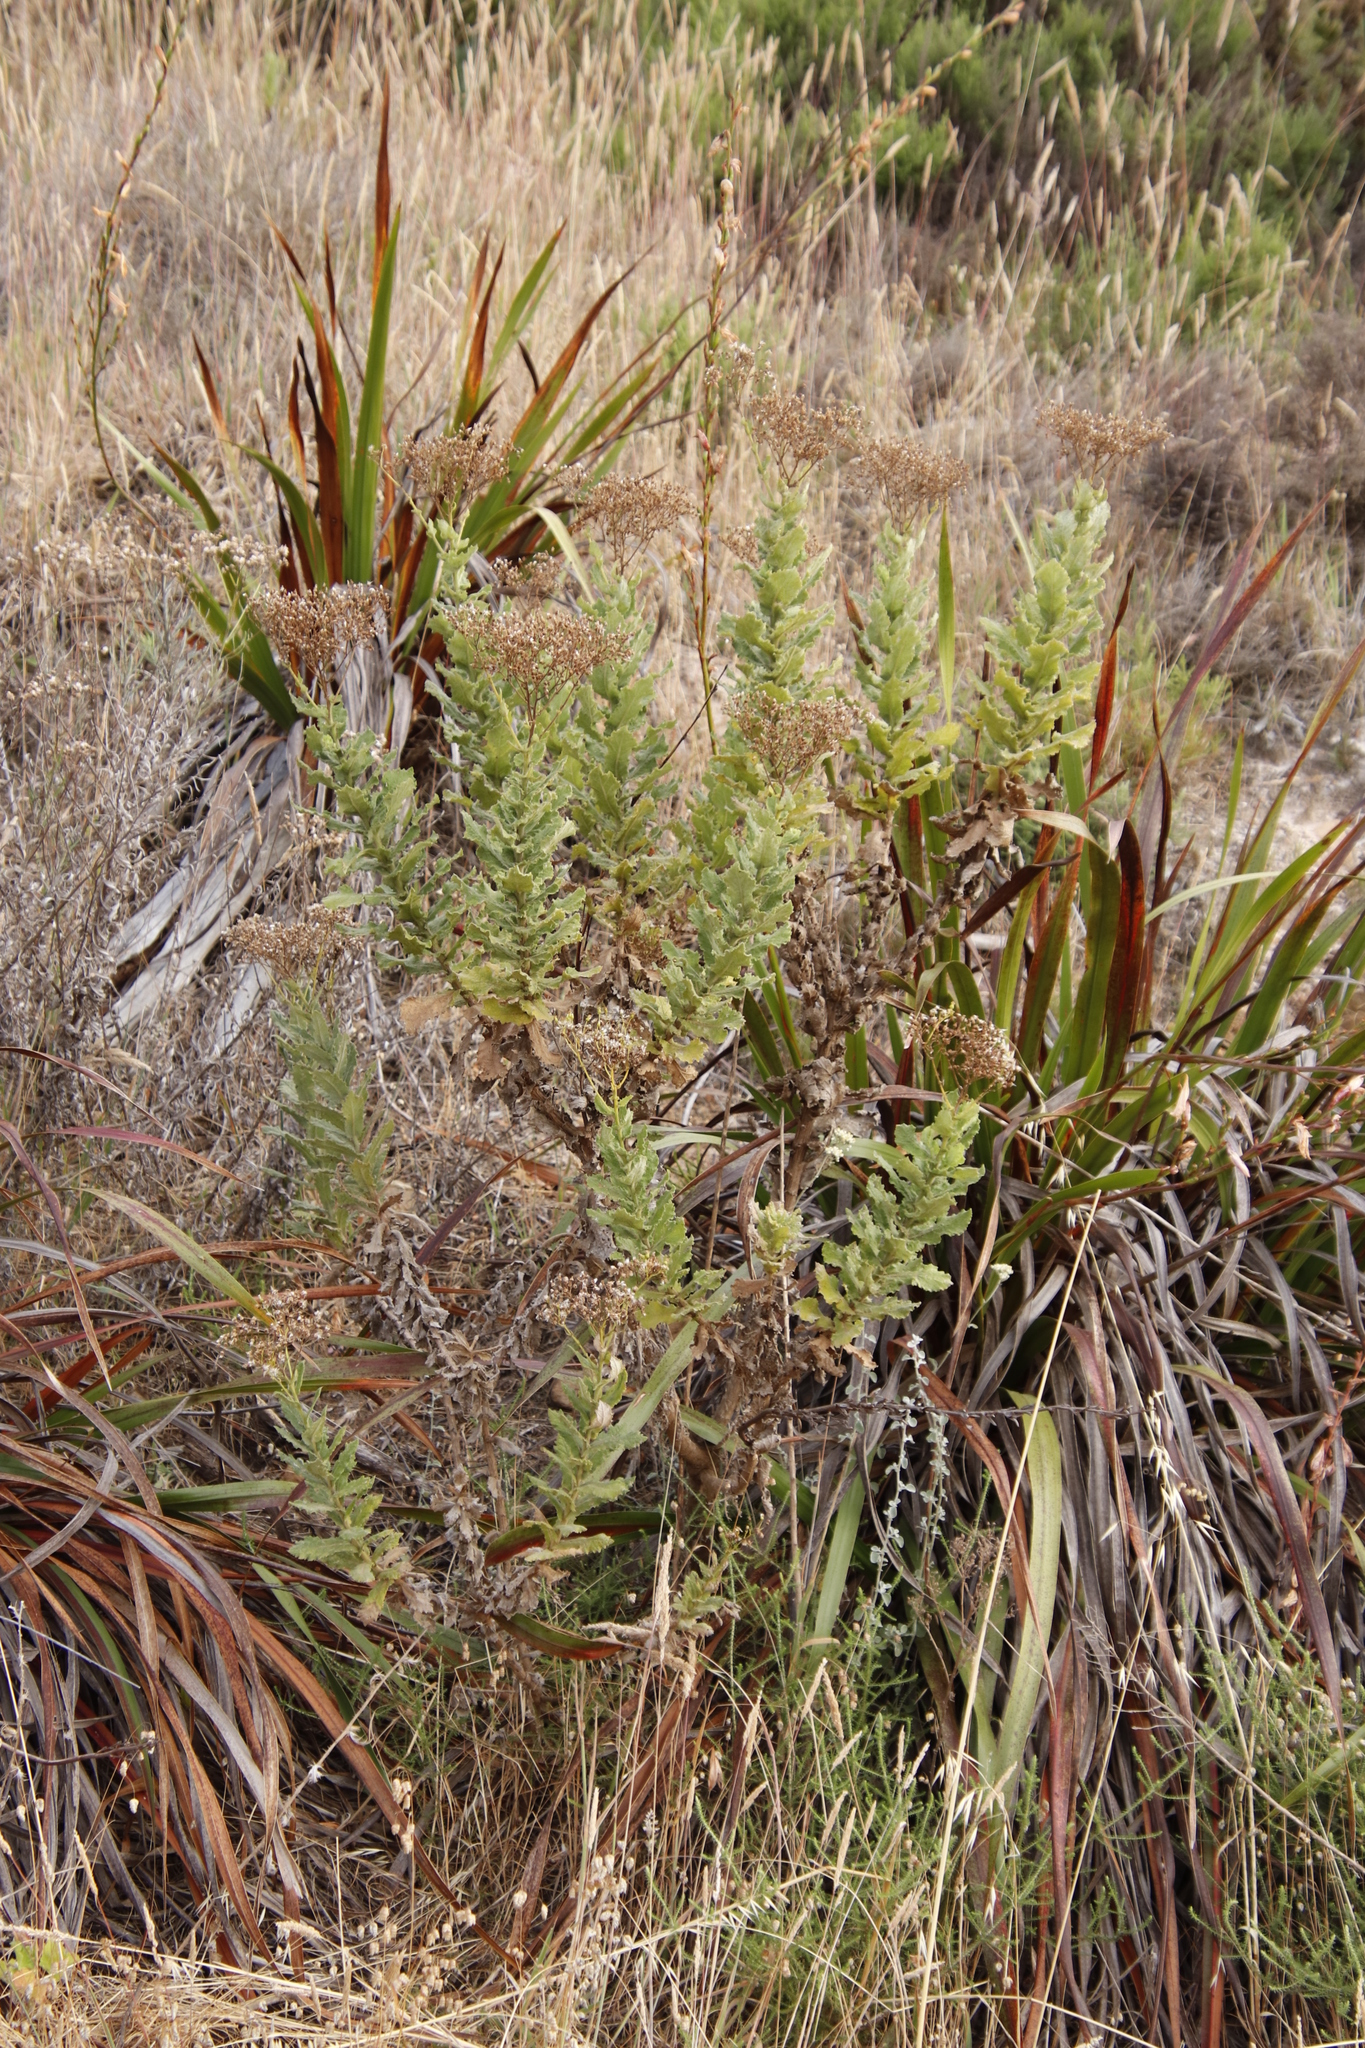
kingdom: Plantae
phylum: Tracheophyta
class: Magnoliopsida
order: Asterales
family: Asteraceae
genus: Senecio
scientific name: Senecio rigidus
